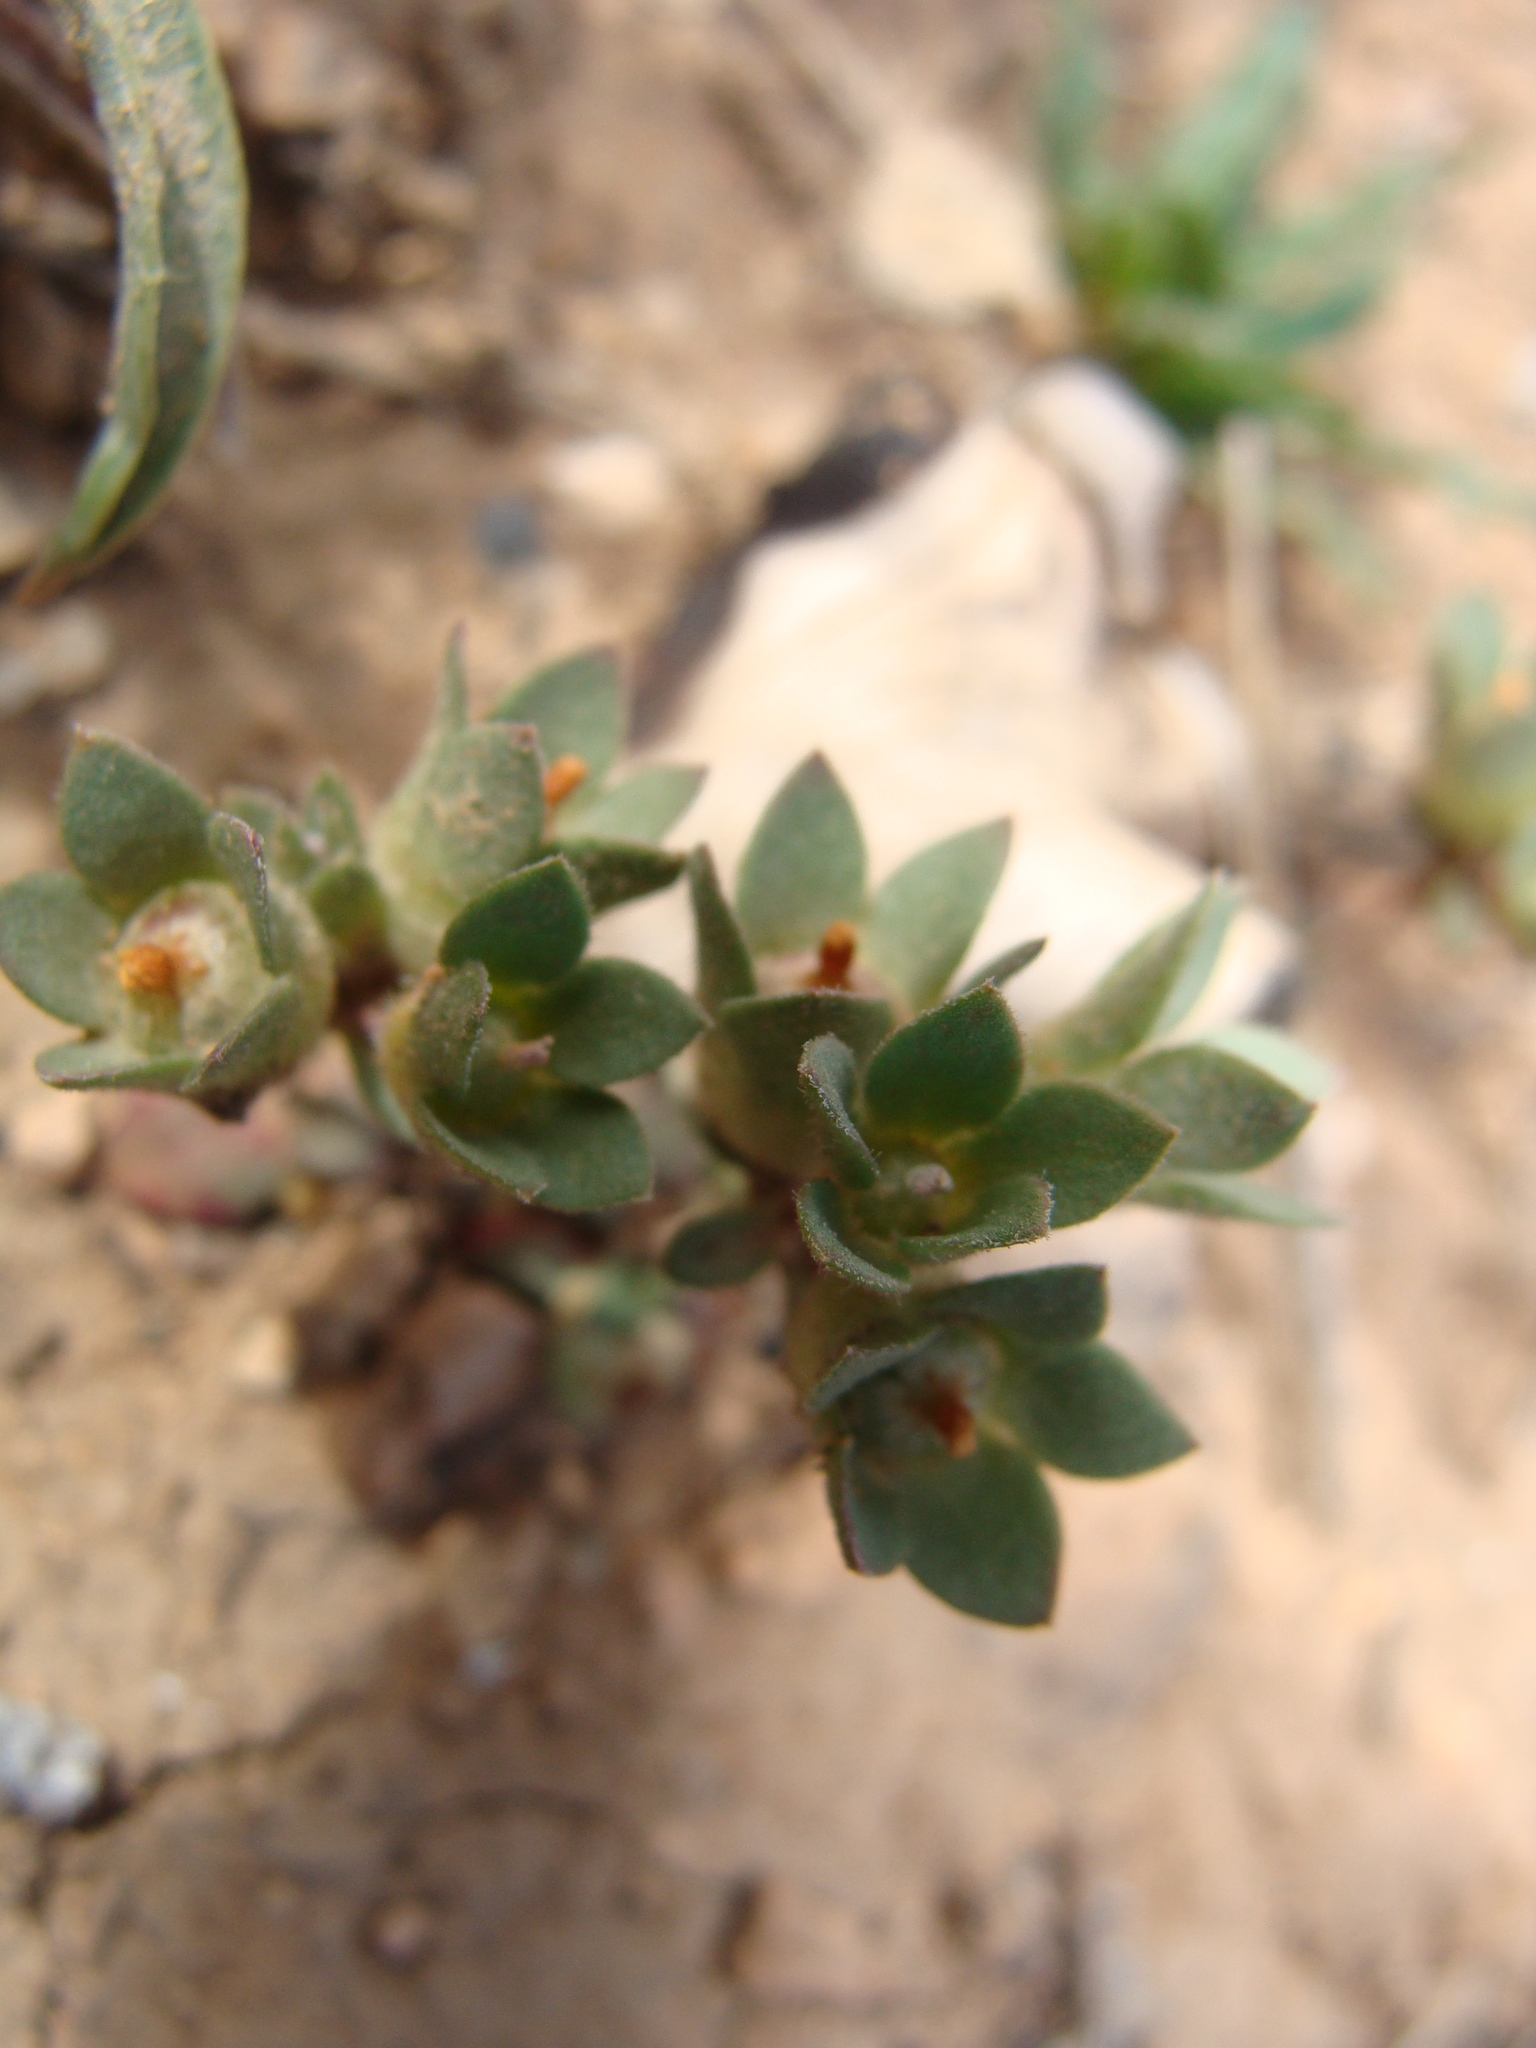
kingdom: Plantae
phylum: Tracheophyta
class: Magnoliopsida
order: Ericales
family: Primulaceae
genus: Androsace
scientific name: Androsace maxima
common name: Annual androsace
